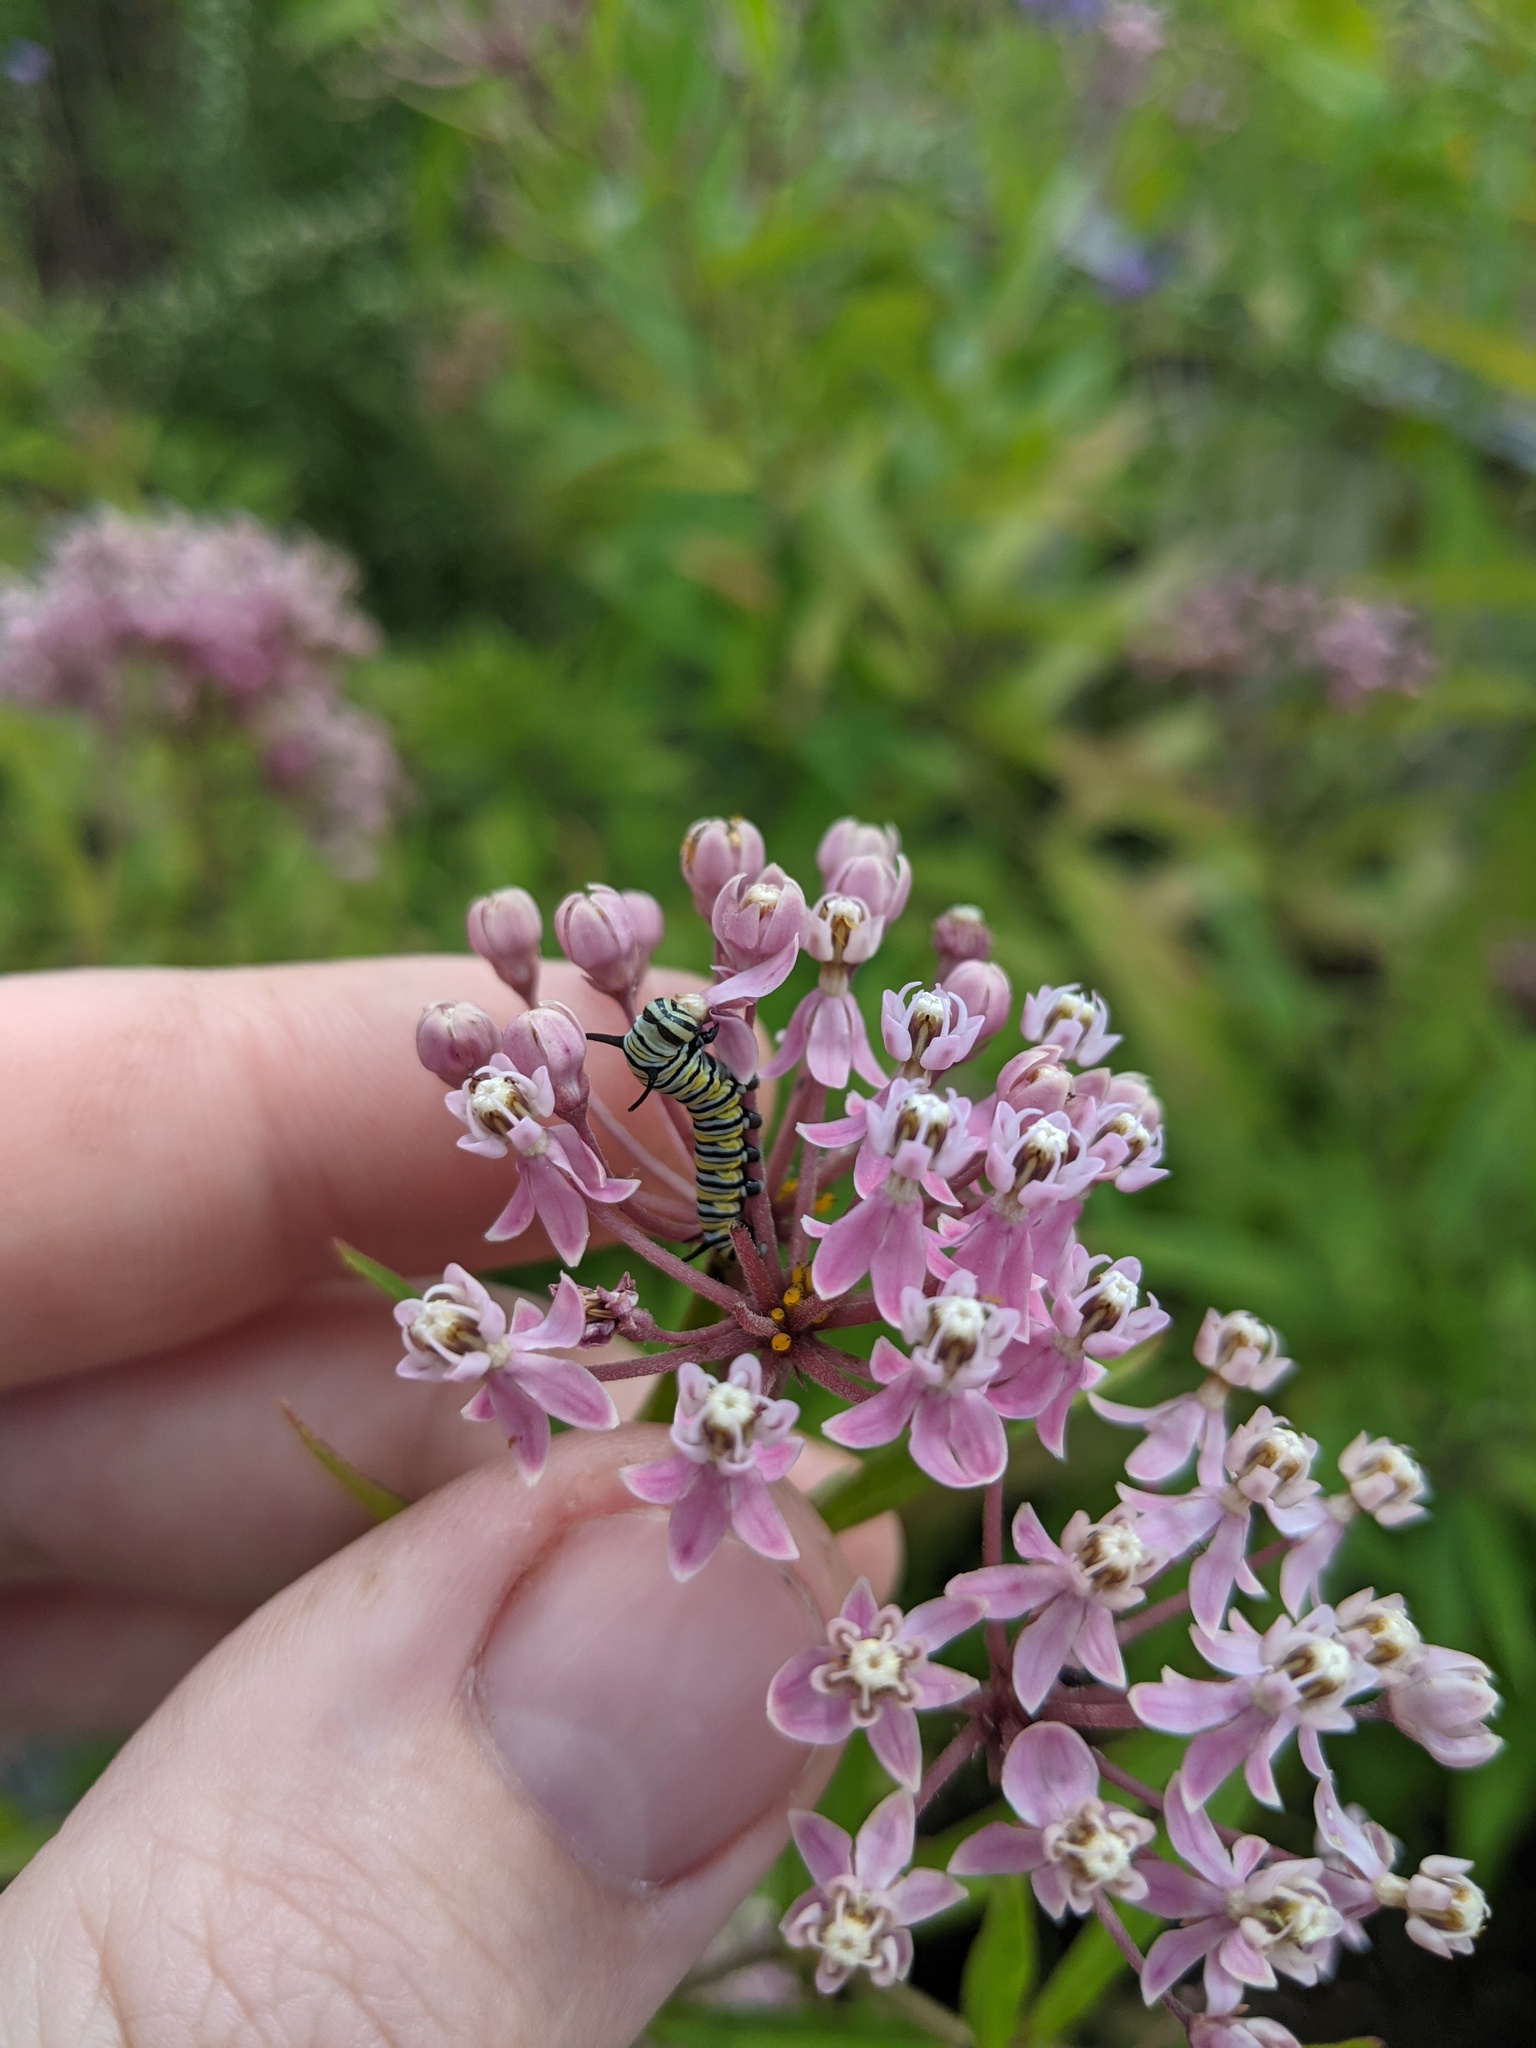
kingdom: Animalia
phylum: Arthropoda
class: Insecta
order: Lepidoptera
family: Nymphalidae
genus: Danaus
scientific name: Danaus plexippus
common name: Monarch
